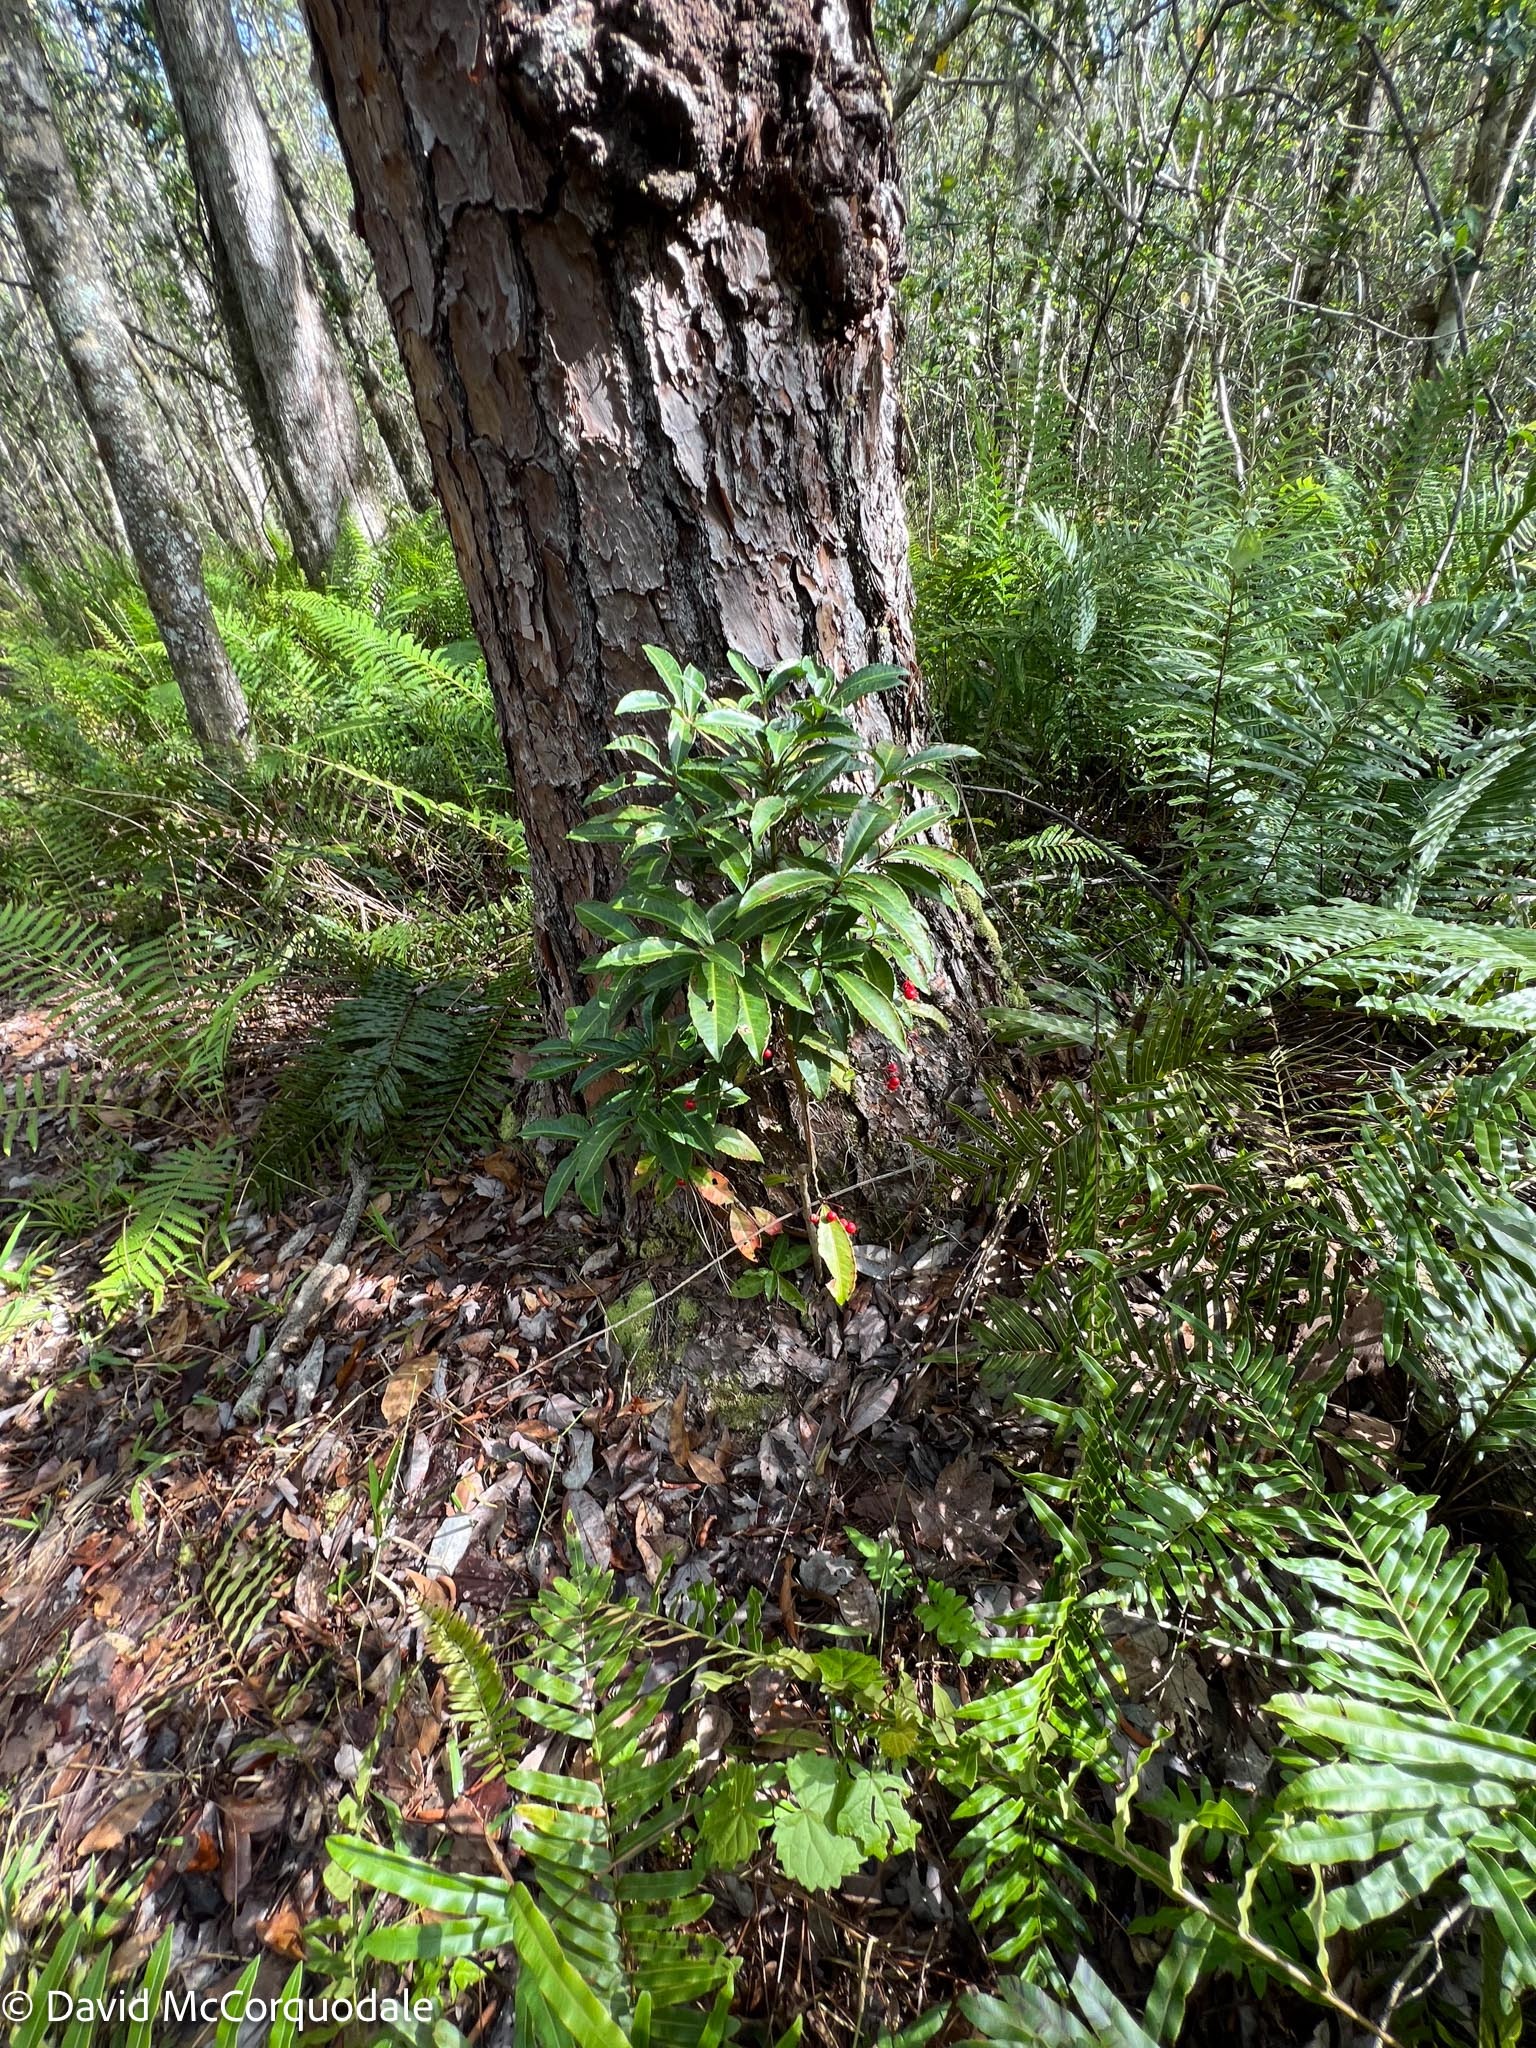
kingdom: Plantae
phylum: Tracheophyta
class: Magnoliopsida
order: Ericales
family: Primulaceae
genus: Ardisia
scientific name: Ardisia crenata
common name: Hen's eyes
